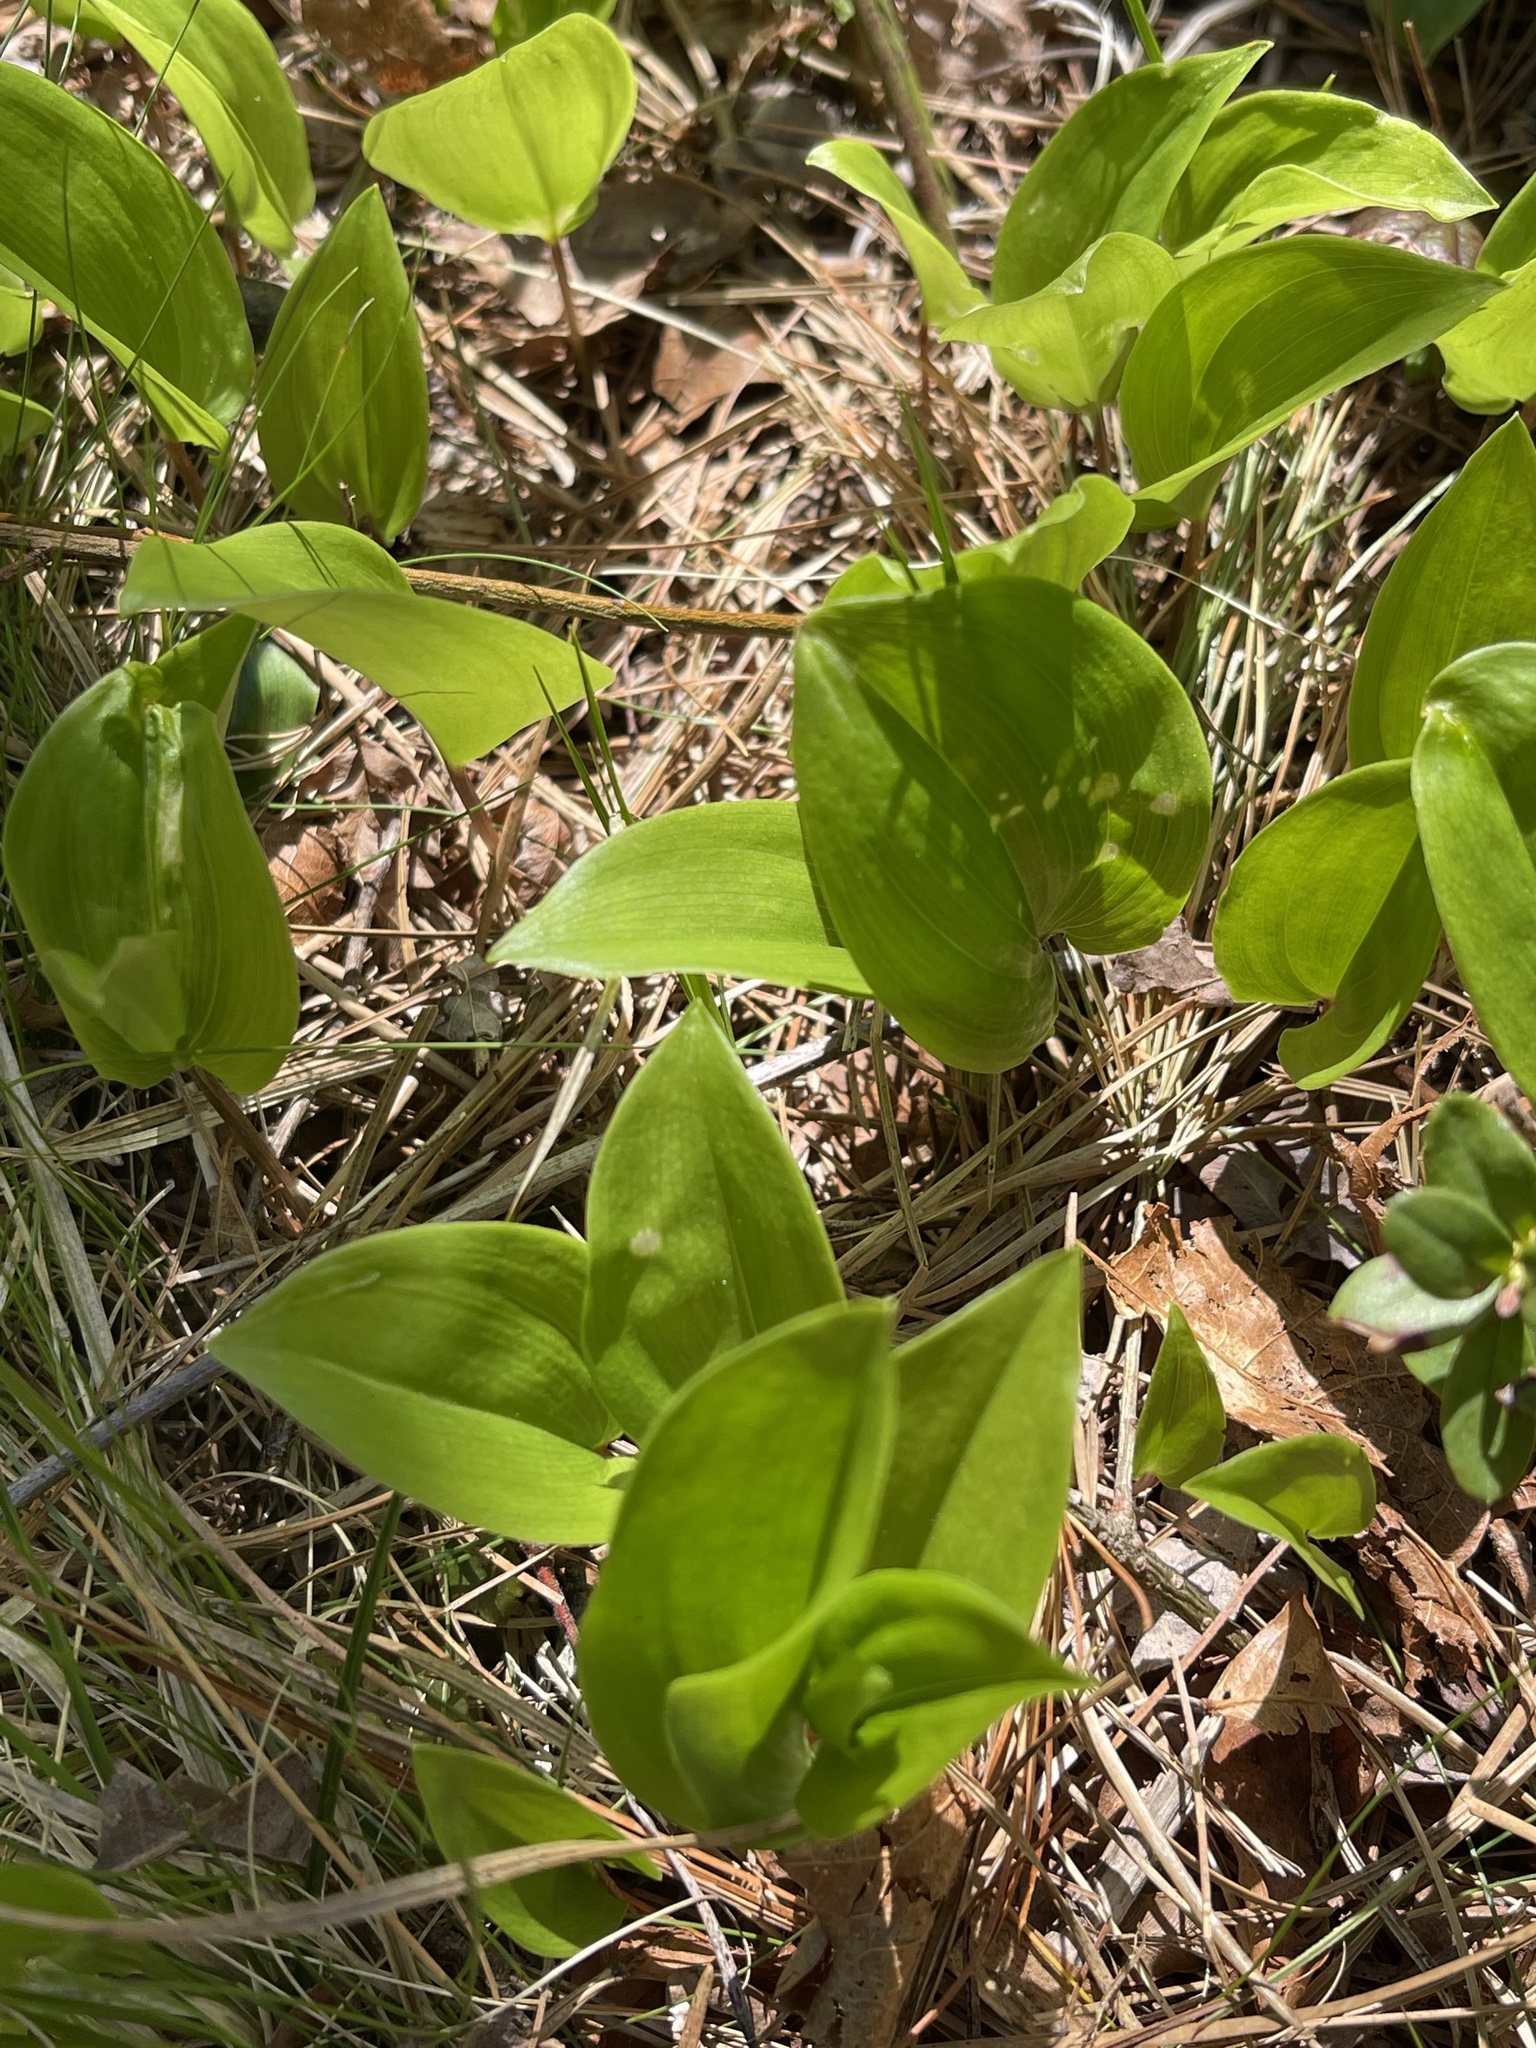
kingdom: Plantae
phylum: Tracheophyta
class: Liliopsida
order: Asparagales
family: Asparagaceae
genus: Maianthemum
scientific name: Maianthemum canadense
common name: False lily-of-the-valley
